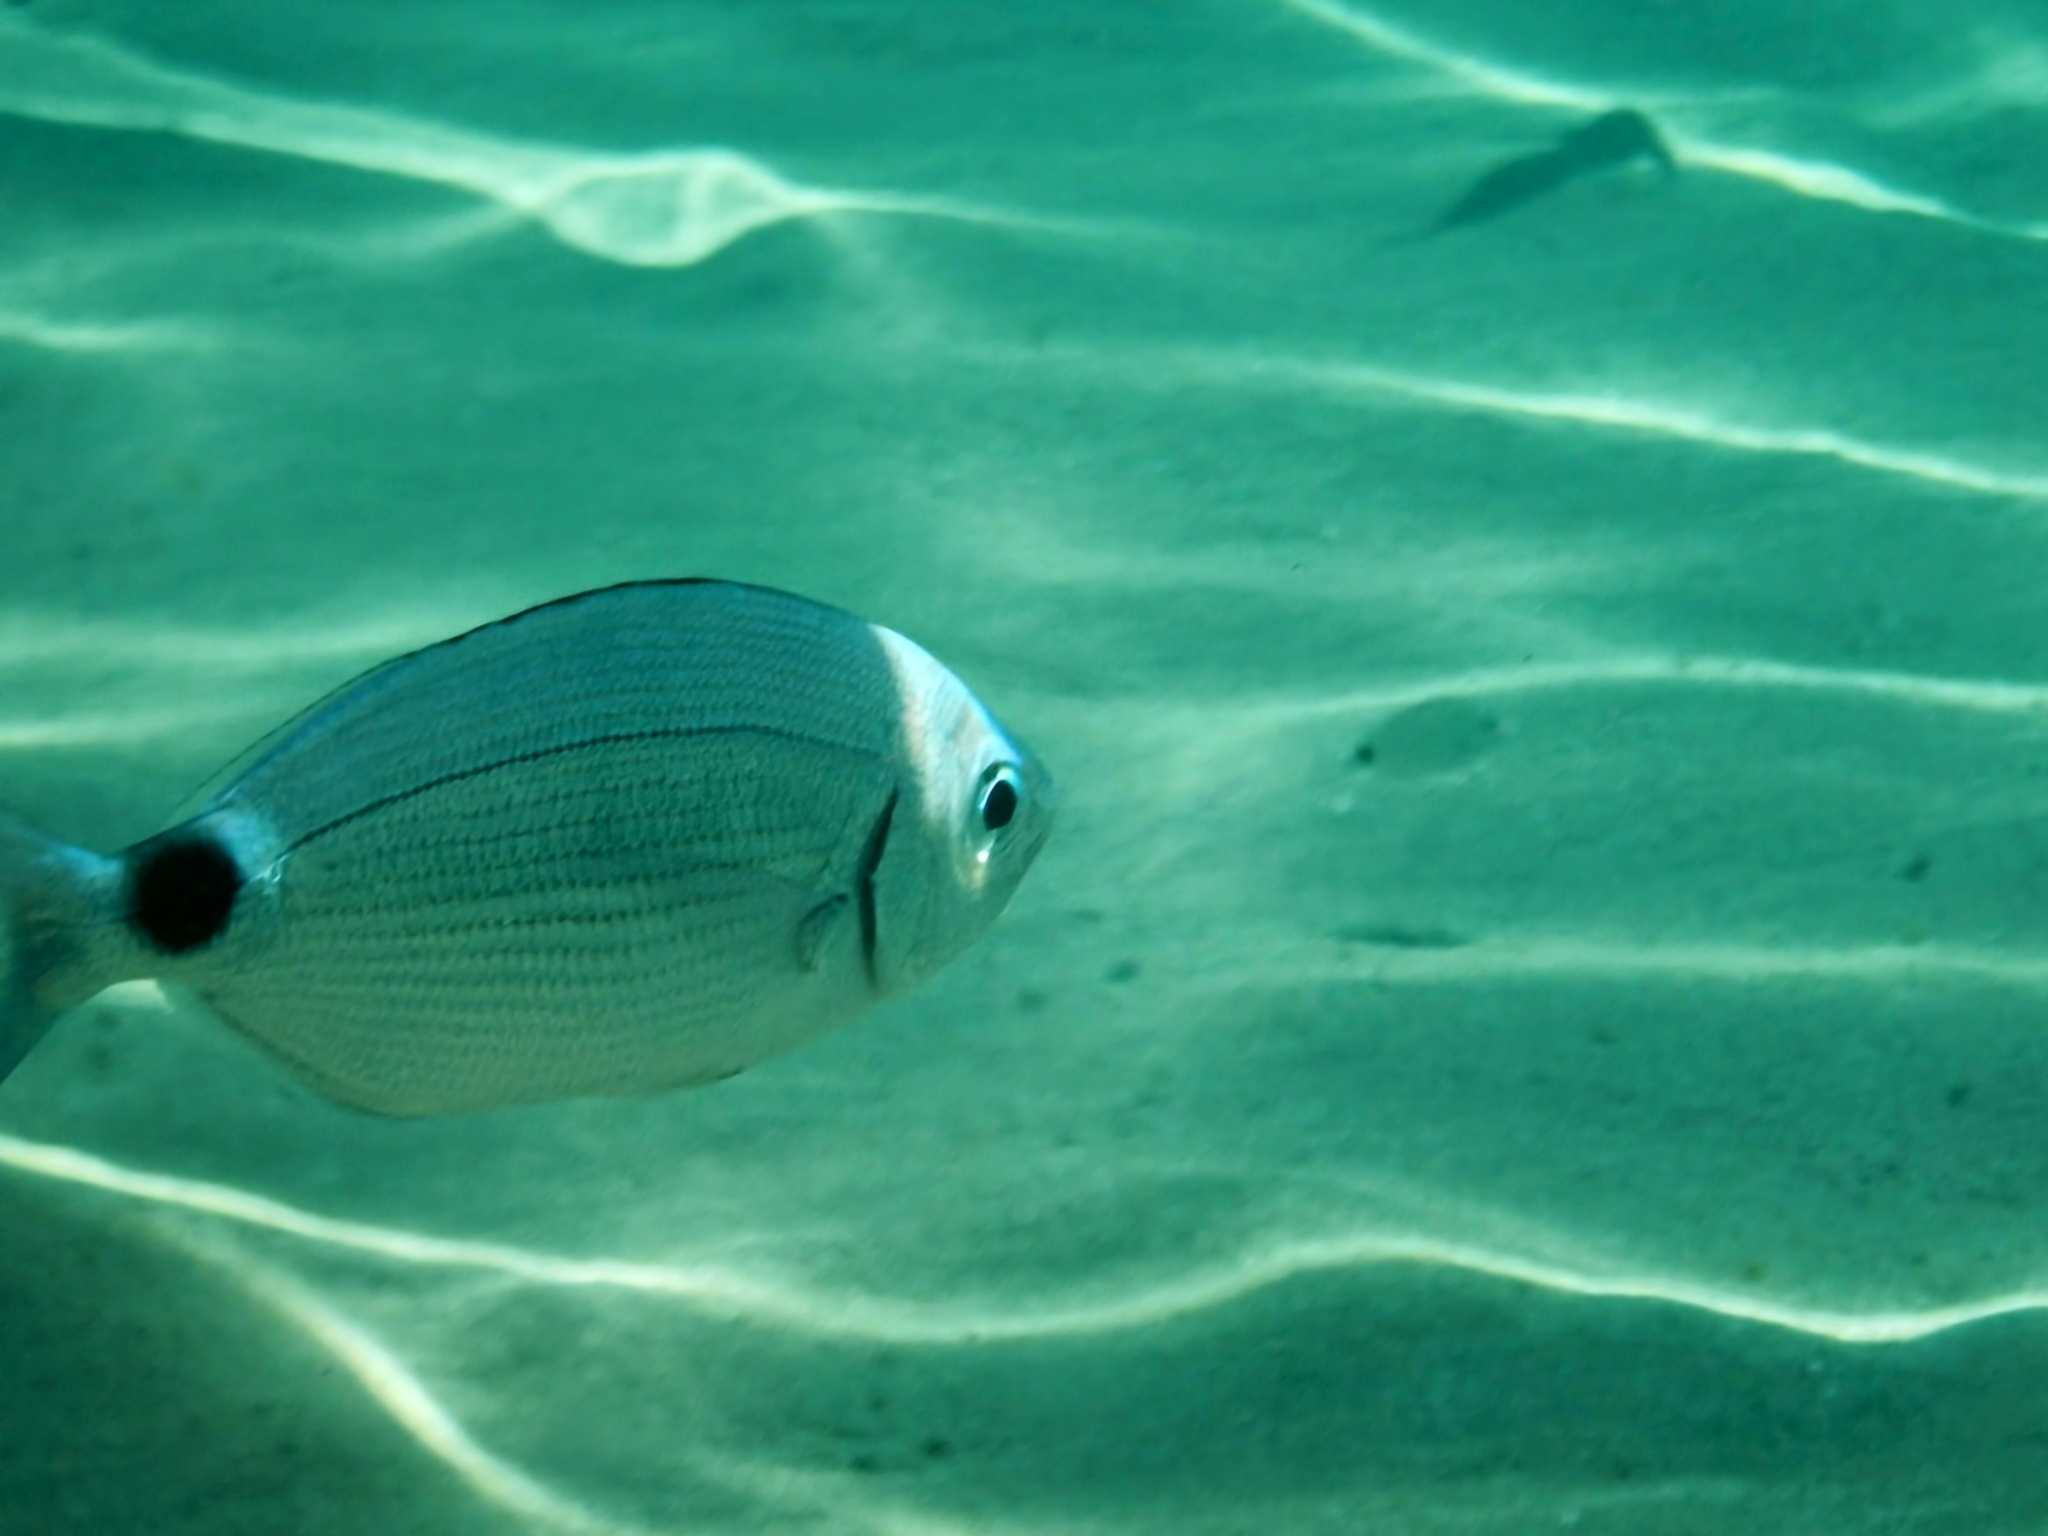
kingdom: Animalia
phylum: Chordata
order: Perciformes
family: Sparidae
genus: Oblada
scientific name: Oblada melanura
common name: Saddled seabream
